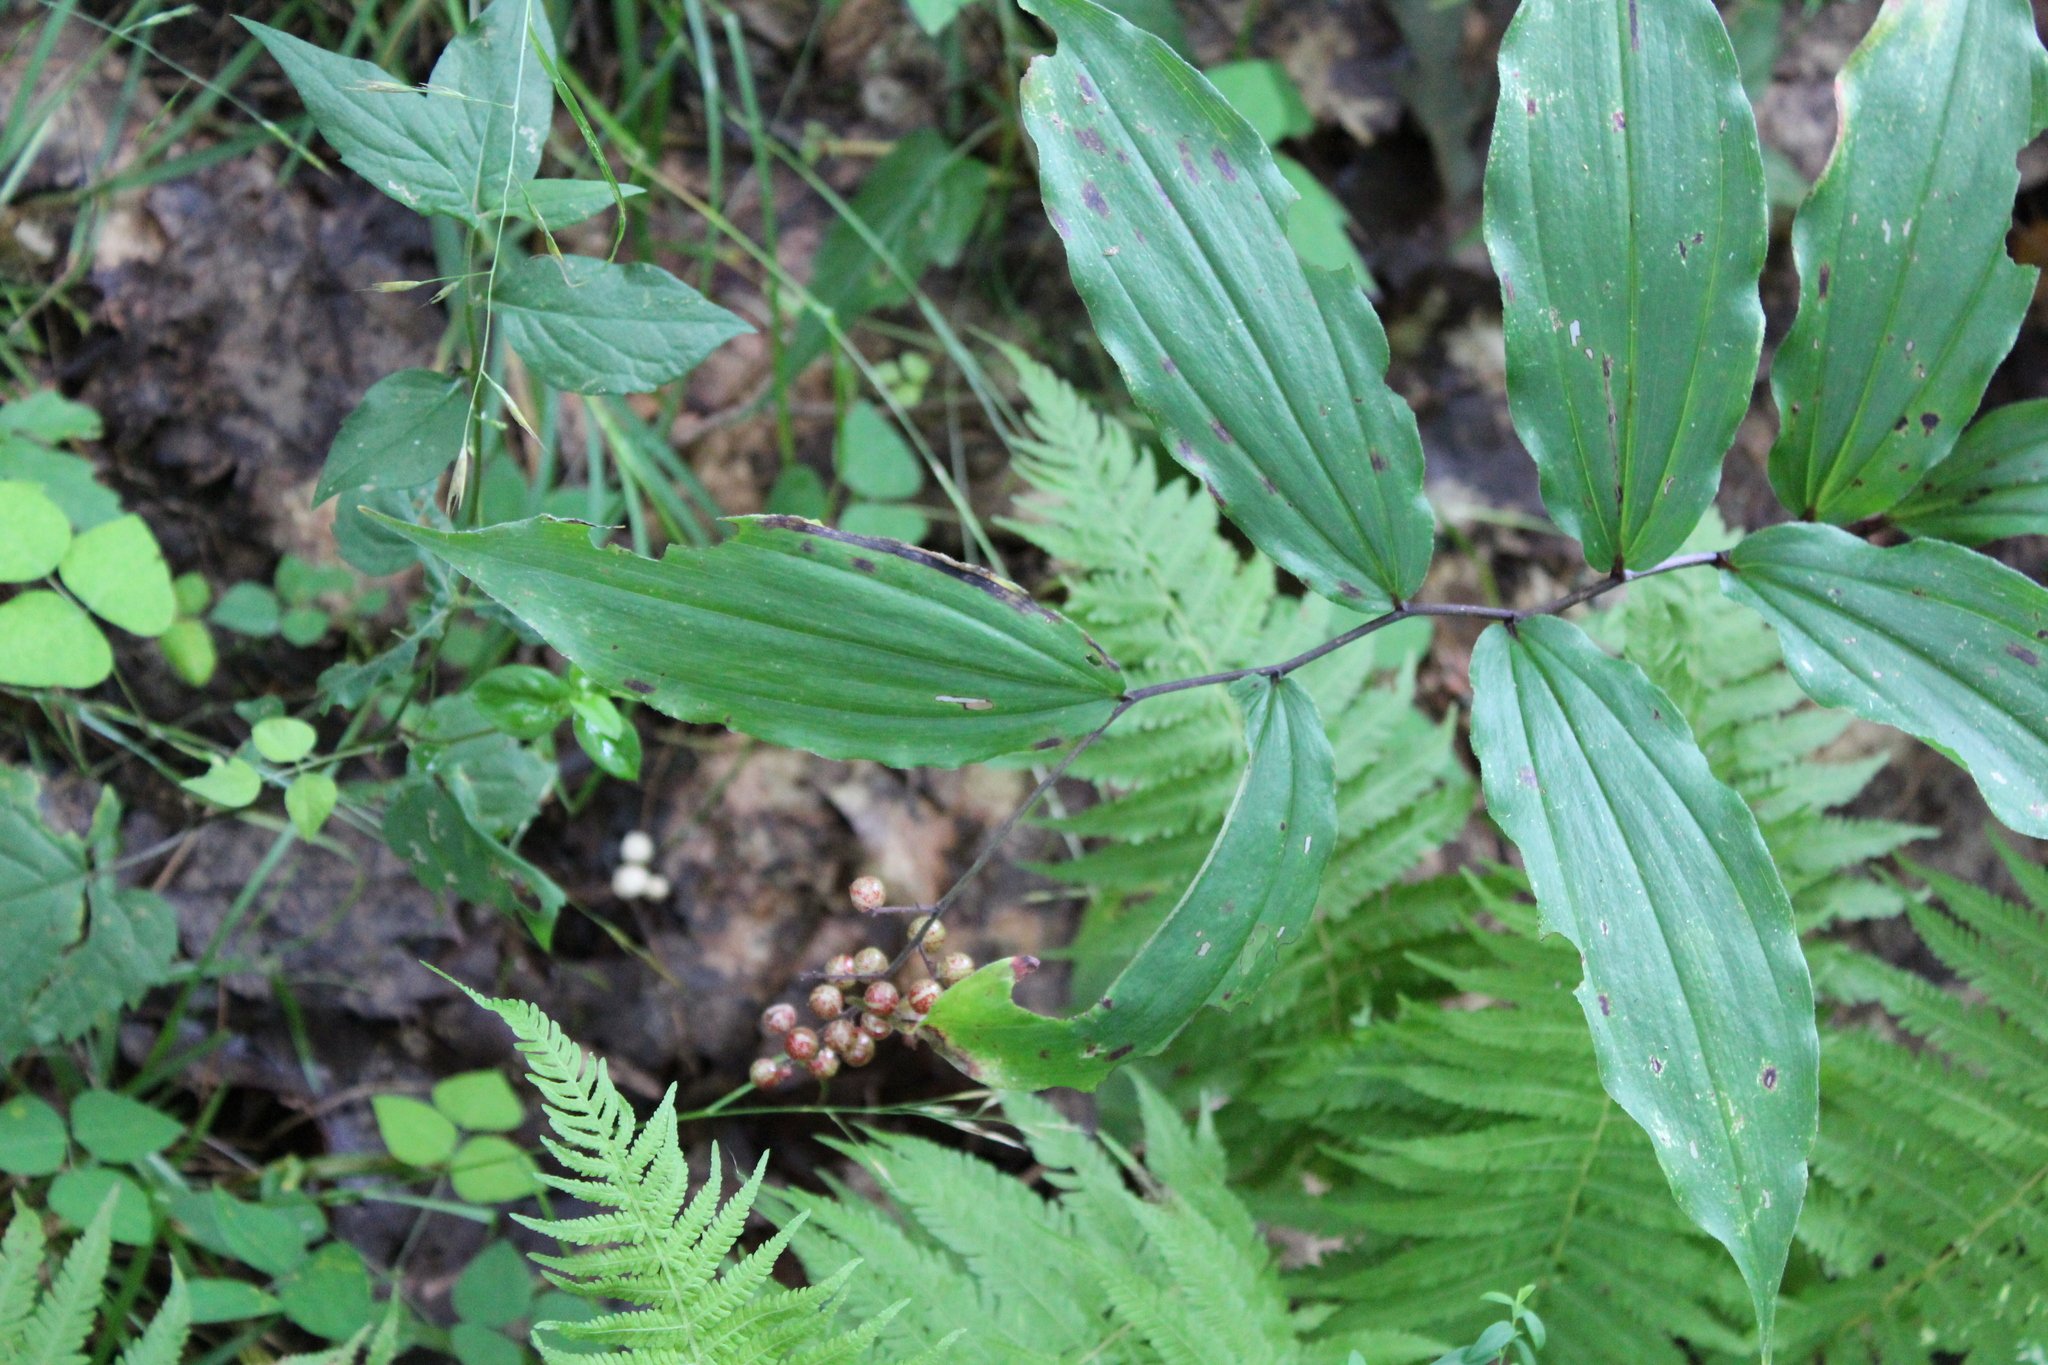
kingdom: Plantae
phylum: Tracheophyta
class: Liliopsida
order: Asparagales
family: Asparagaceae
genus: Maianthemum
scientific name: Maianthemum racemosum
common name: False spikenard
